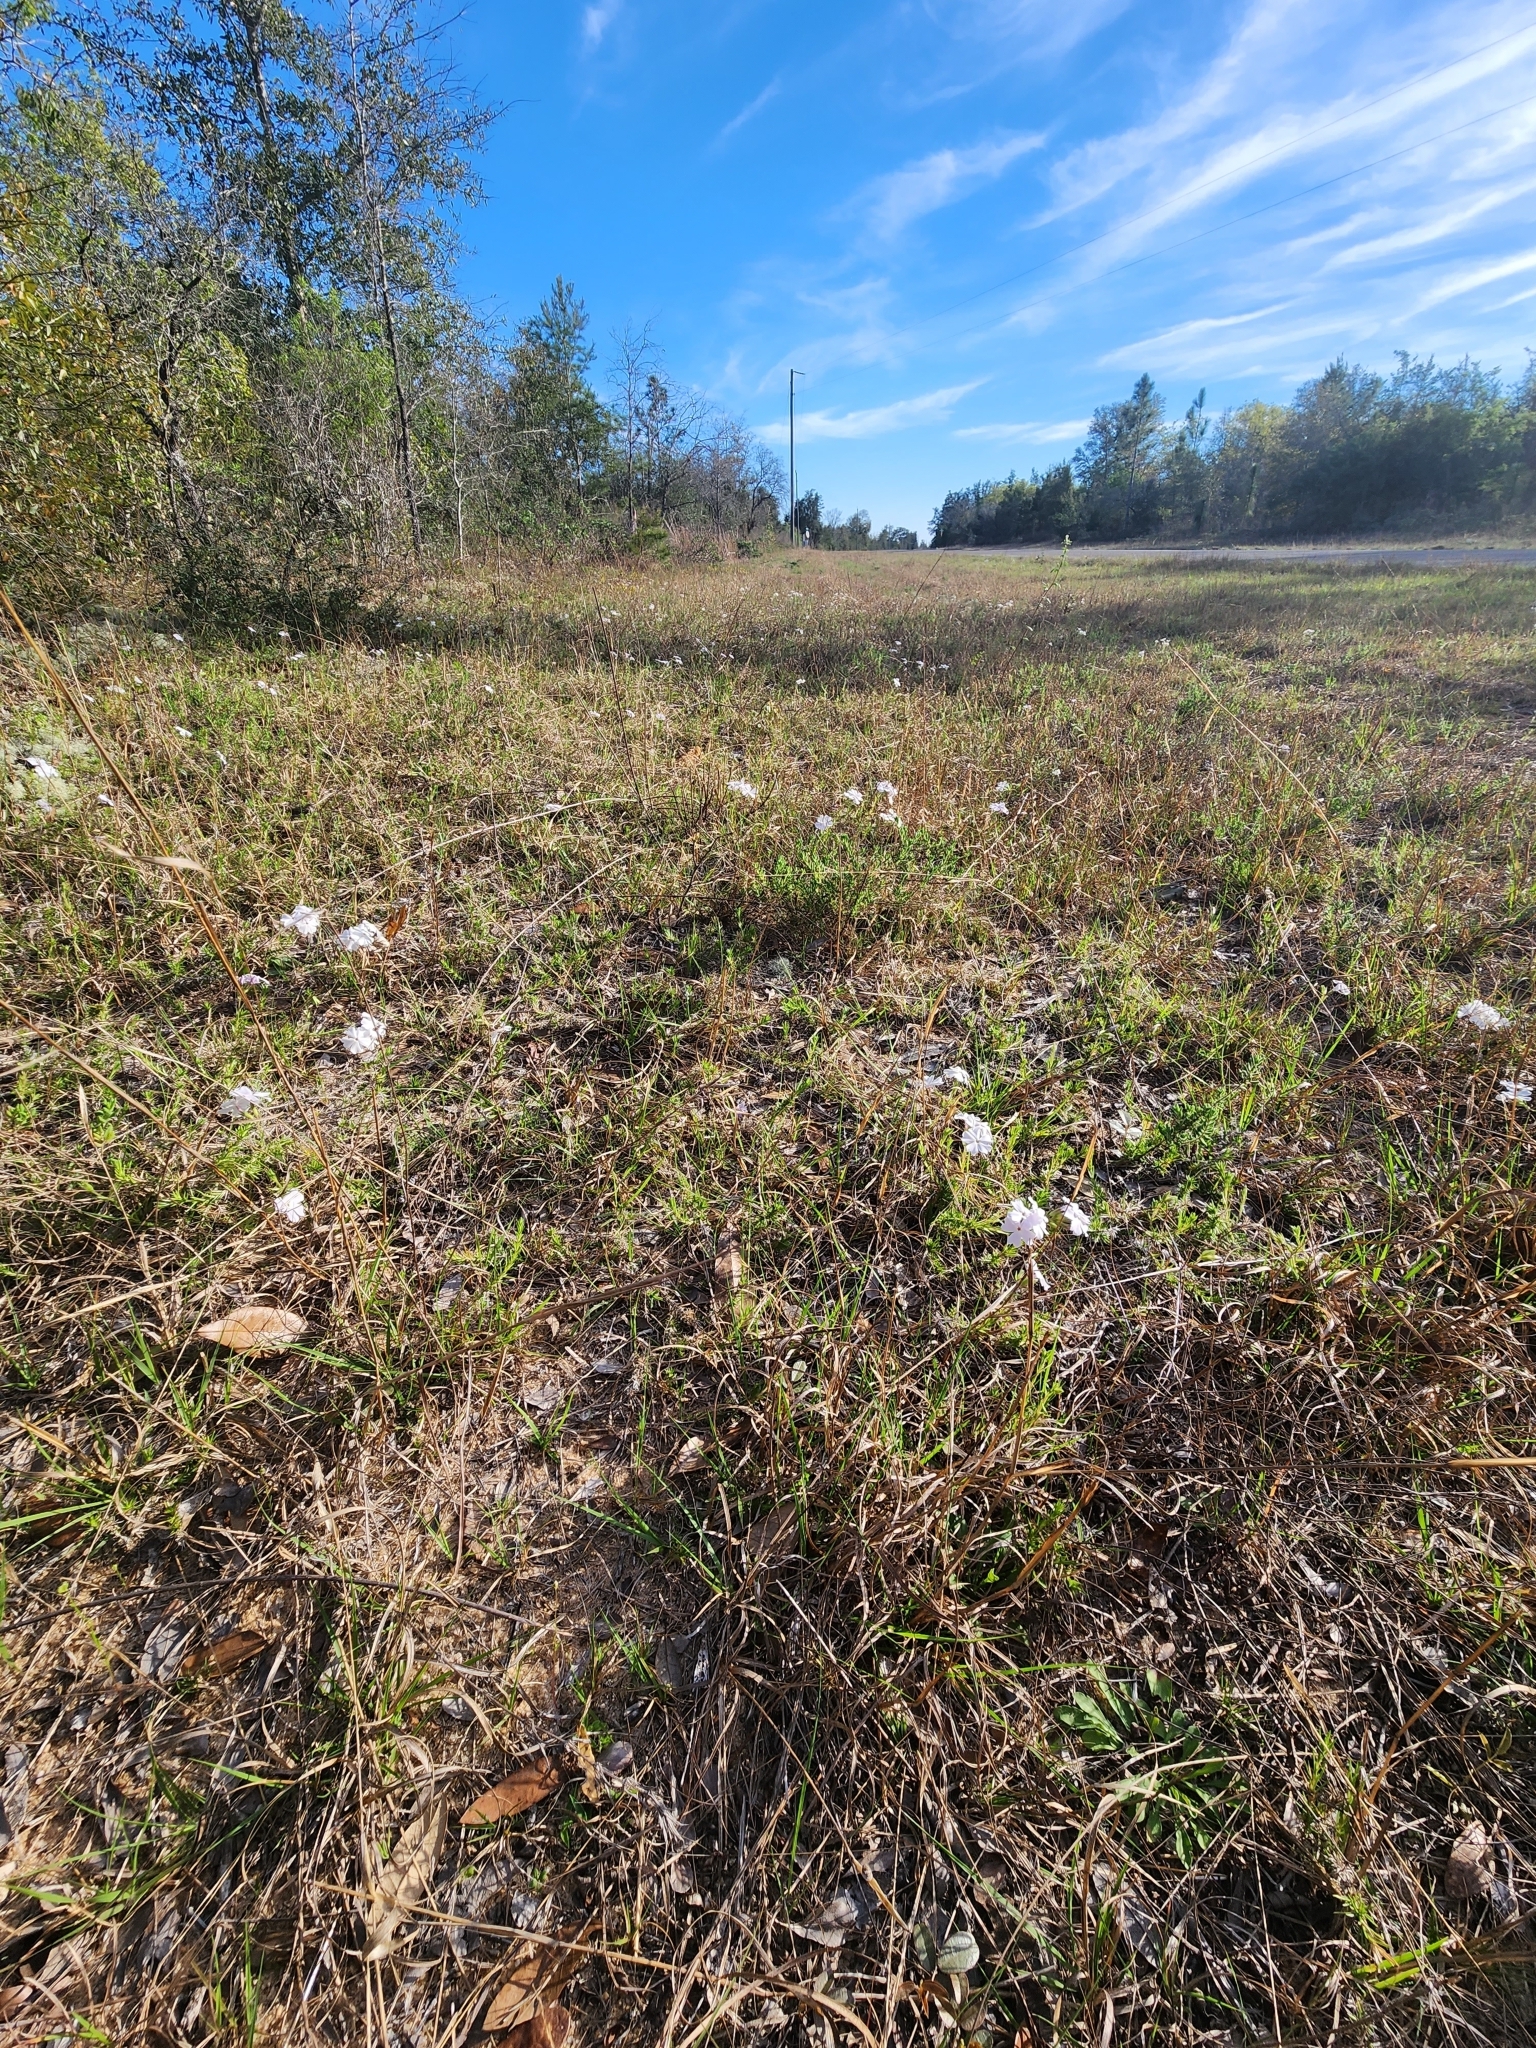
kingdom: Plantae
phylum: Tracheophyta
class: Magnoliopsida
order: Ericales
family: Polemoniaceae
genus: Phlox
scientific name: Phlox nivalis
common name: Trailing phlox
